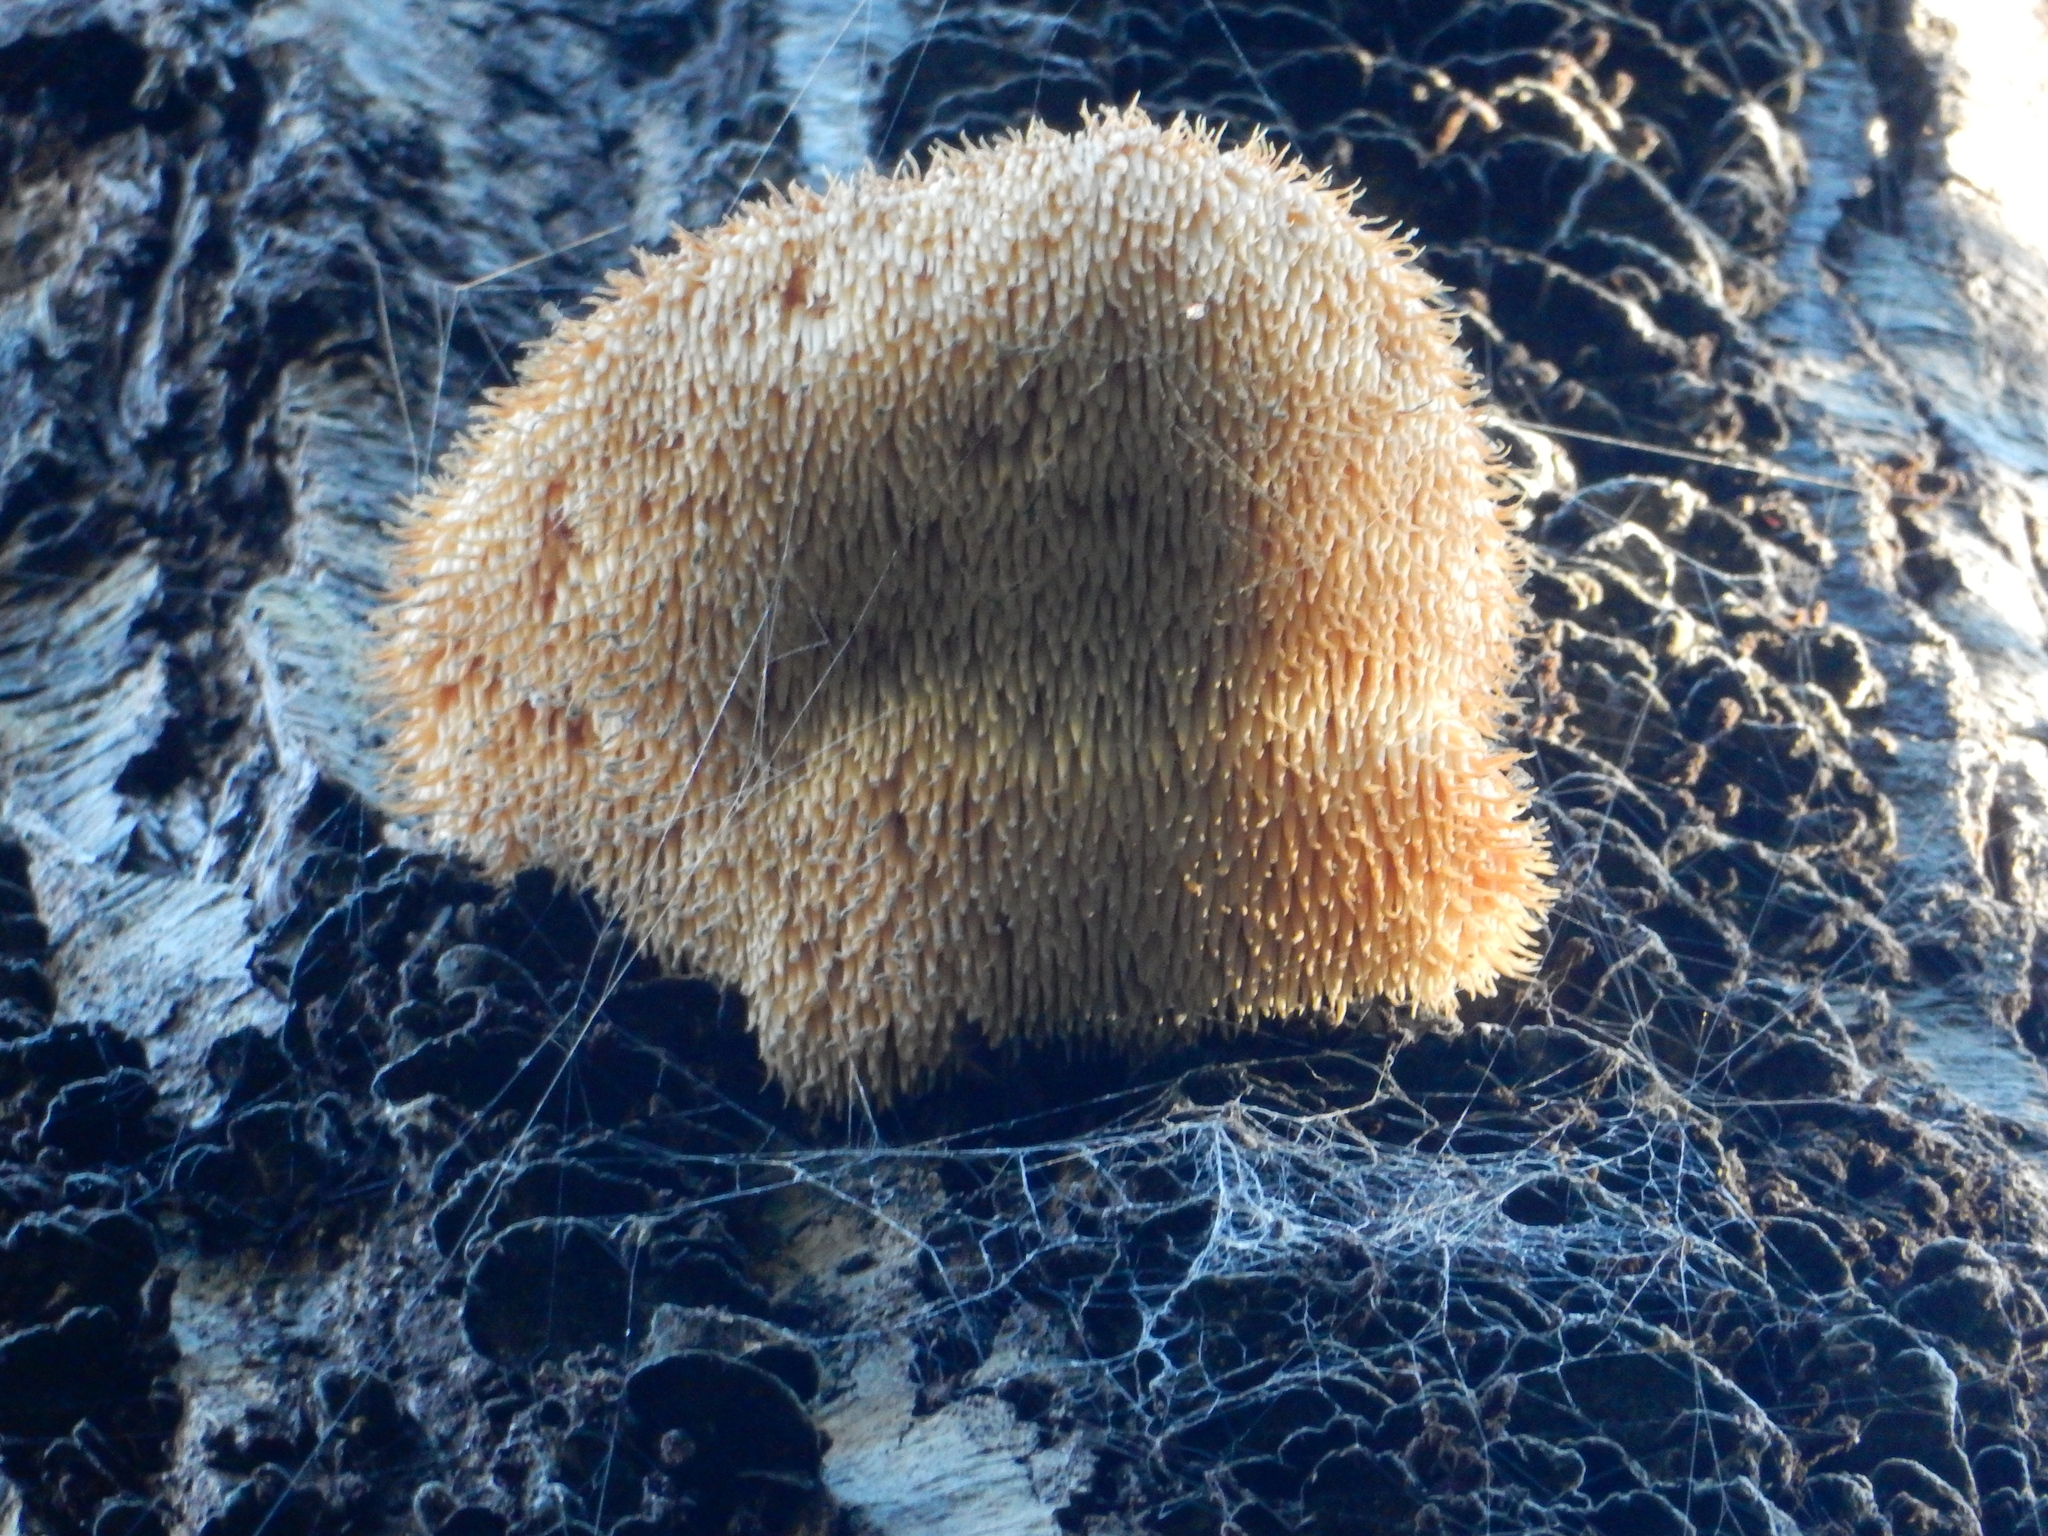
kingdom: Fungi
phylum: Basidiomycota
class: Agaricomycetes
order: Russulales
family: Hericiaceae
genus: Hericium
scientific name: Hericium novae-zealandiae
